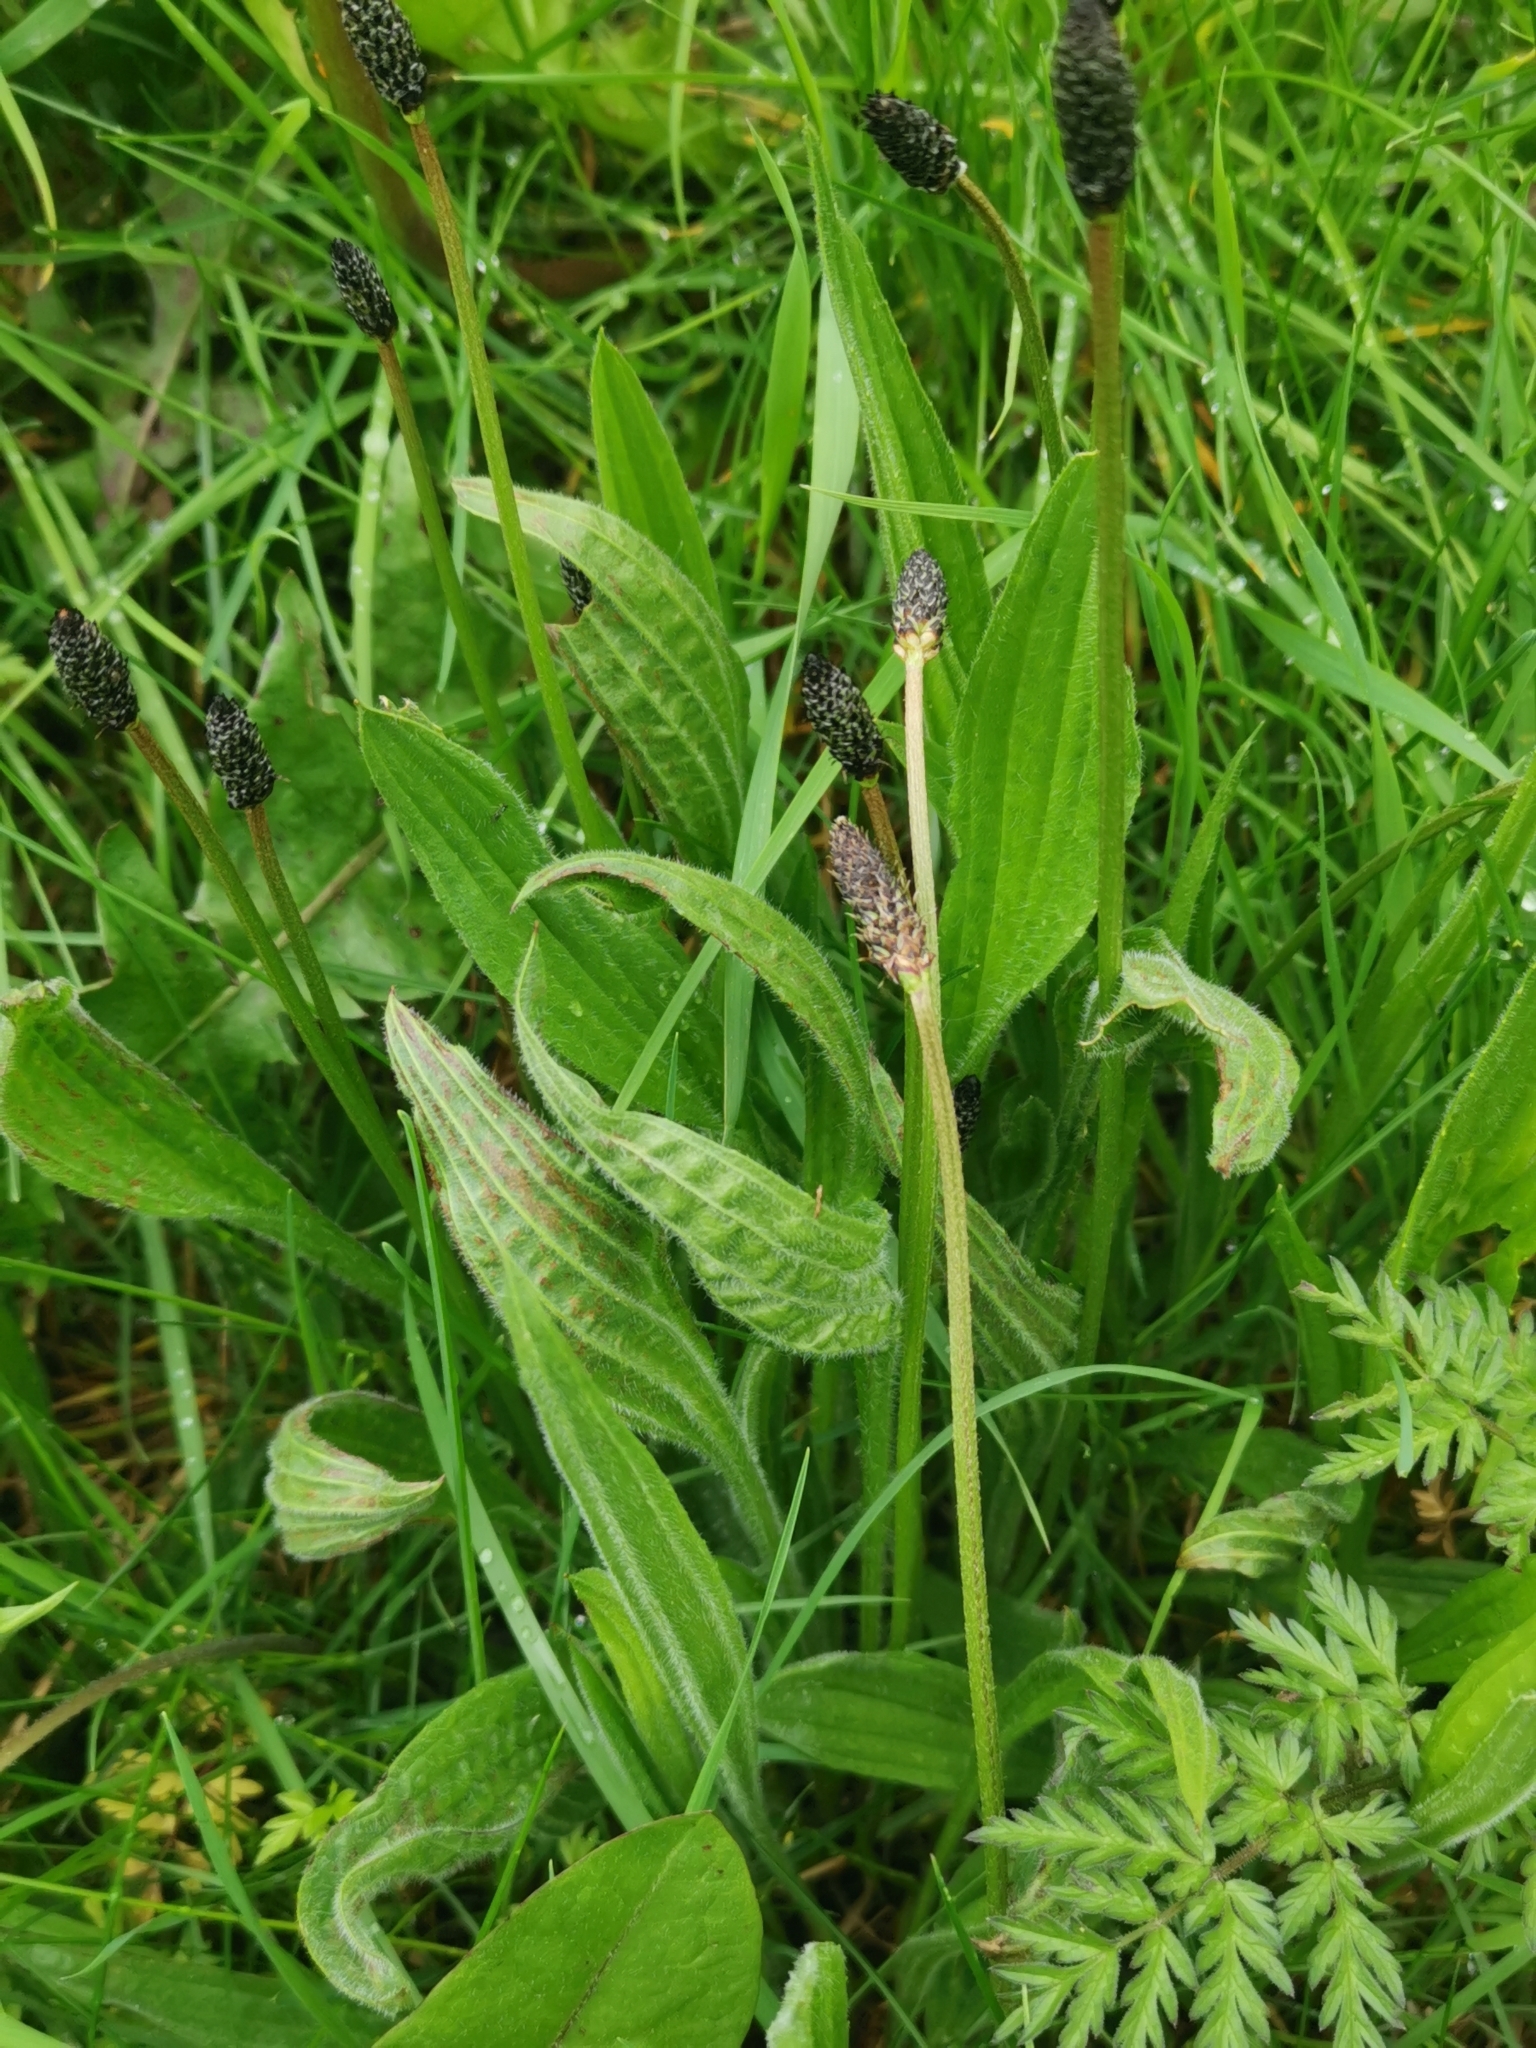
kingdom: Plantae
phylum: Tracheophyta
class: Magnoliopsida
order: Lamiales
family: Plantaginaceae
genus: Plantago
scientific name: Plantago lanceolata
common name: Ribwort plantain
